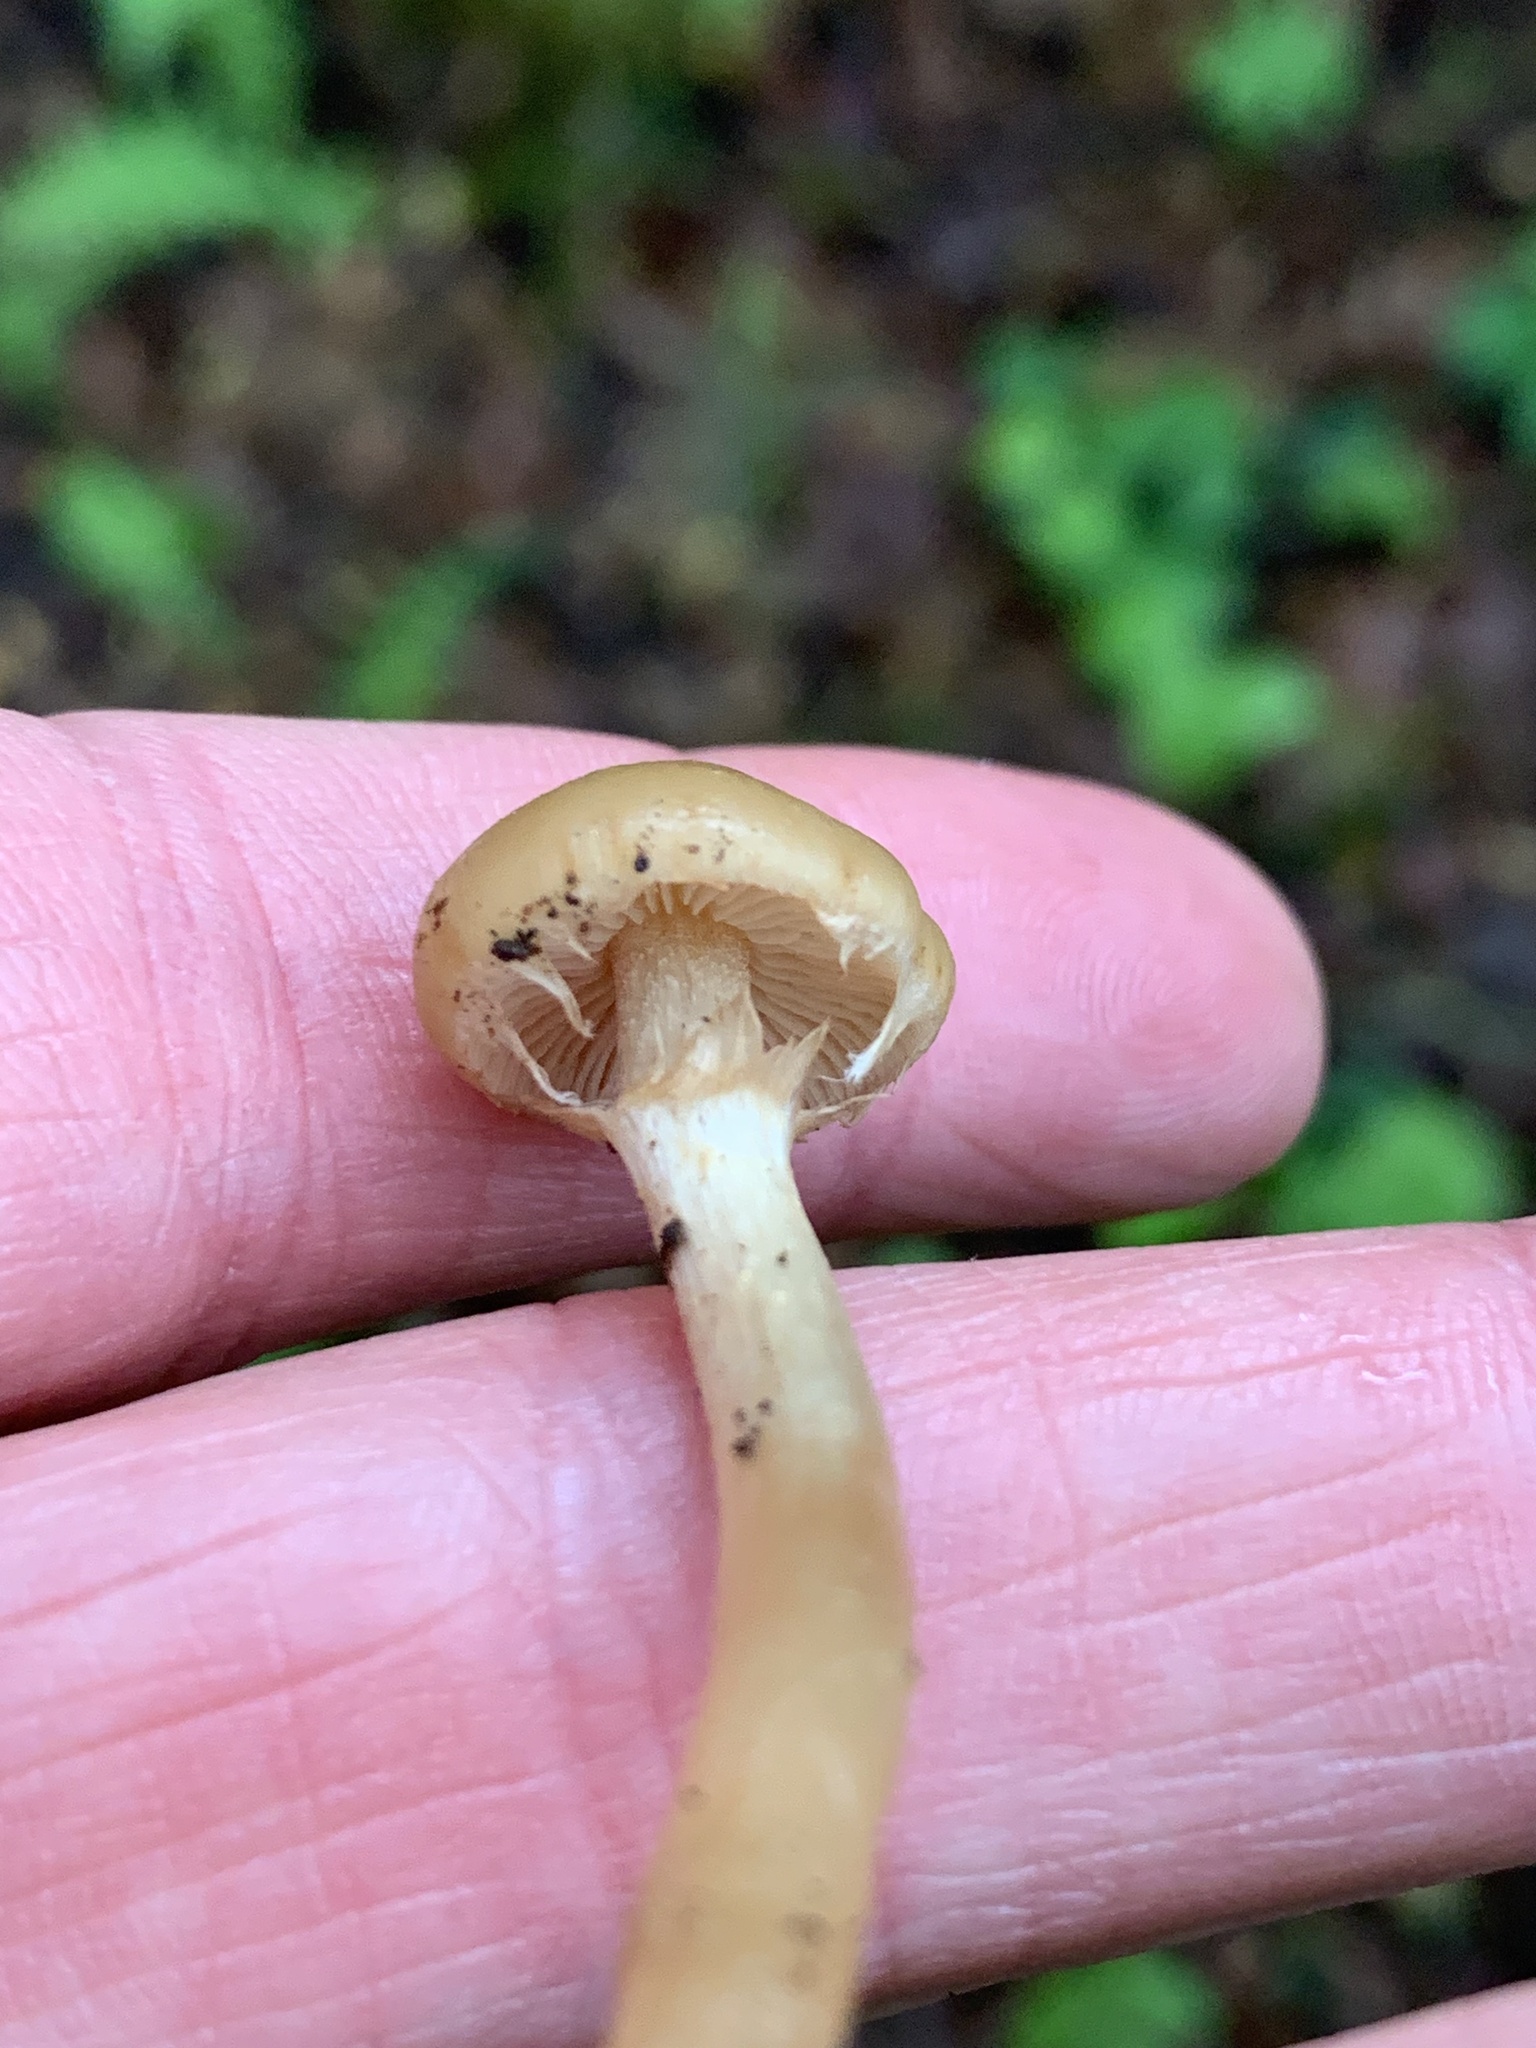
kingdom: Fungi
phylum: Basidiomycota
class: Agaricomycetes
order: Agaricales
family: Strophariaceae
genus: Kuehneromyces
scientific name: Kuehneromyces marginellus
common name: Sheathed woodtuft
